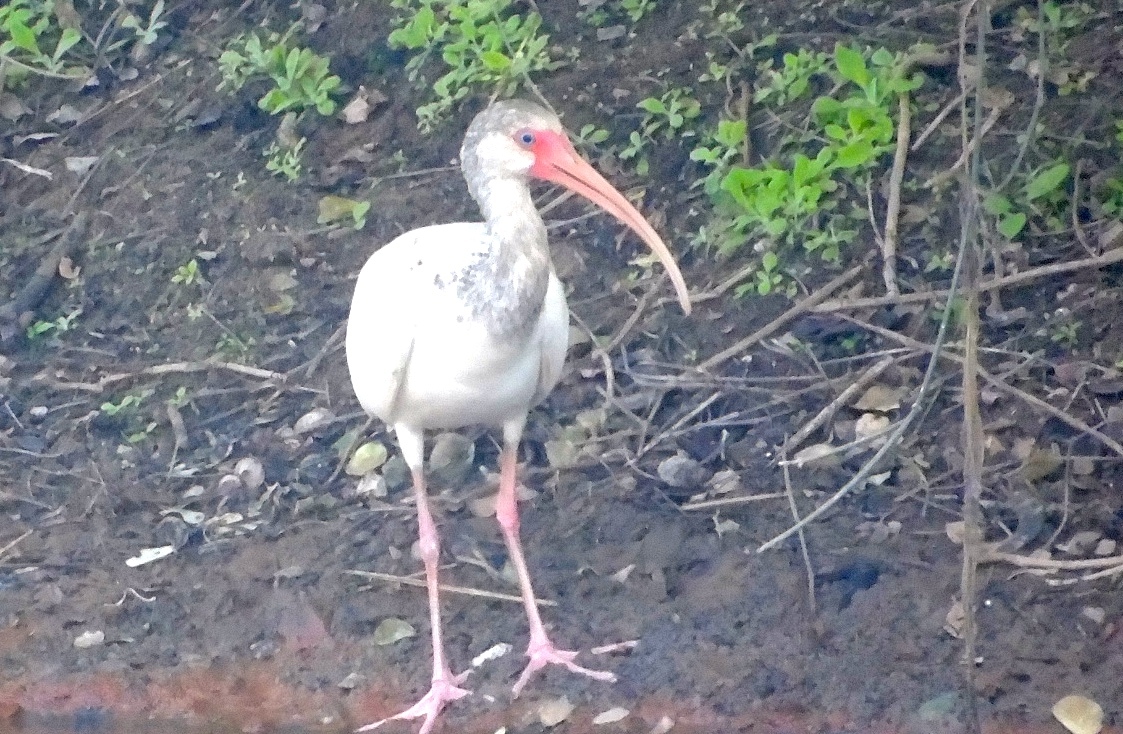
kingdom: Animalia
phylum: Chordata
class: Aves
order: Pelecaniformes
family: Threskiornithidae
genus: Eudocimus
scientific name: Eudocimus albus
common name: White ibis
